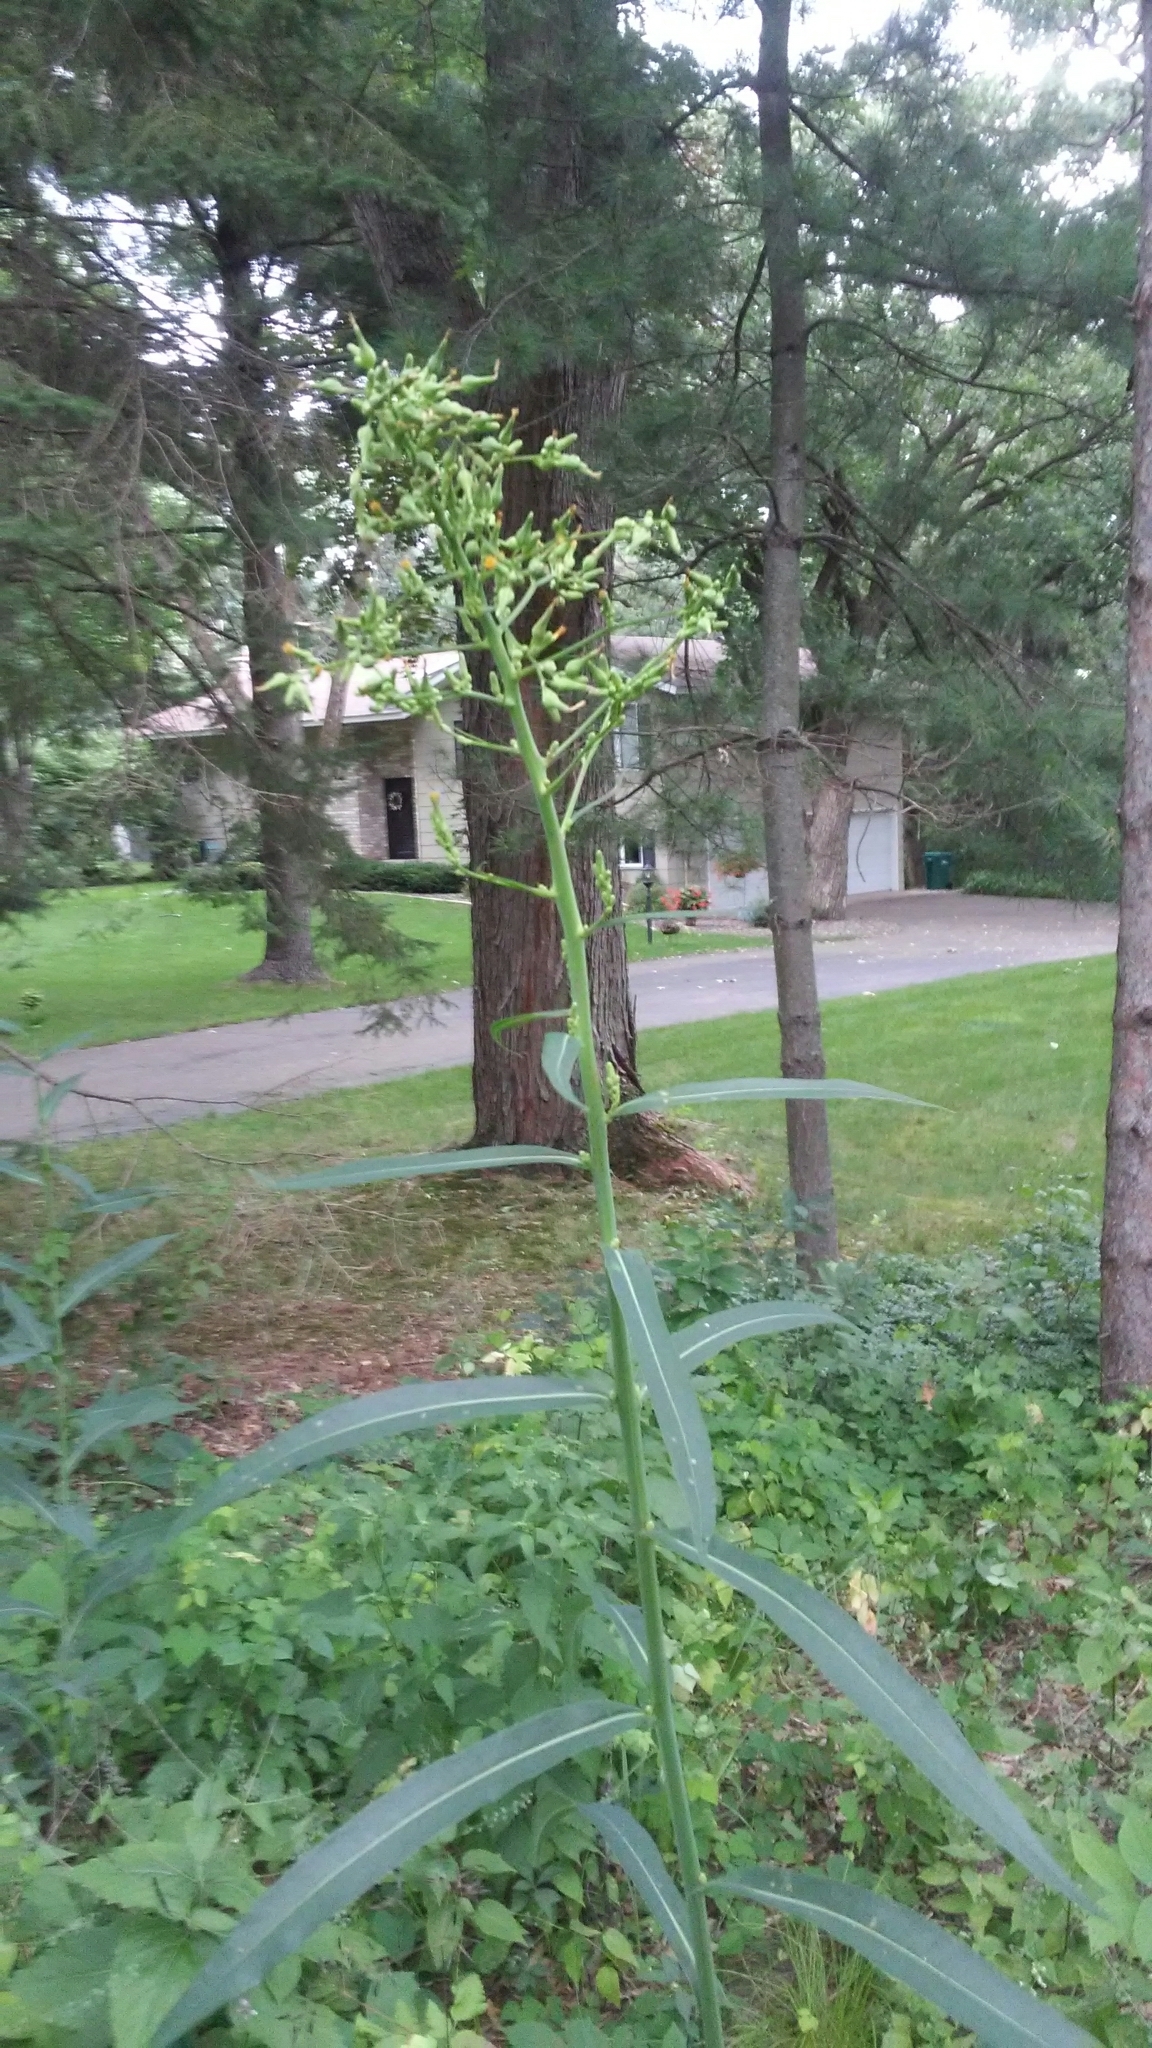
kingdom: Plantae
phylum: Tracheophyta
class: Magnoliopsida
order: Asterales
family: Asteraceae
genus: Lactuca
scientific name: Lactuca canadensis
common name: Canada lettuce
